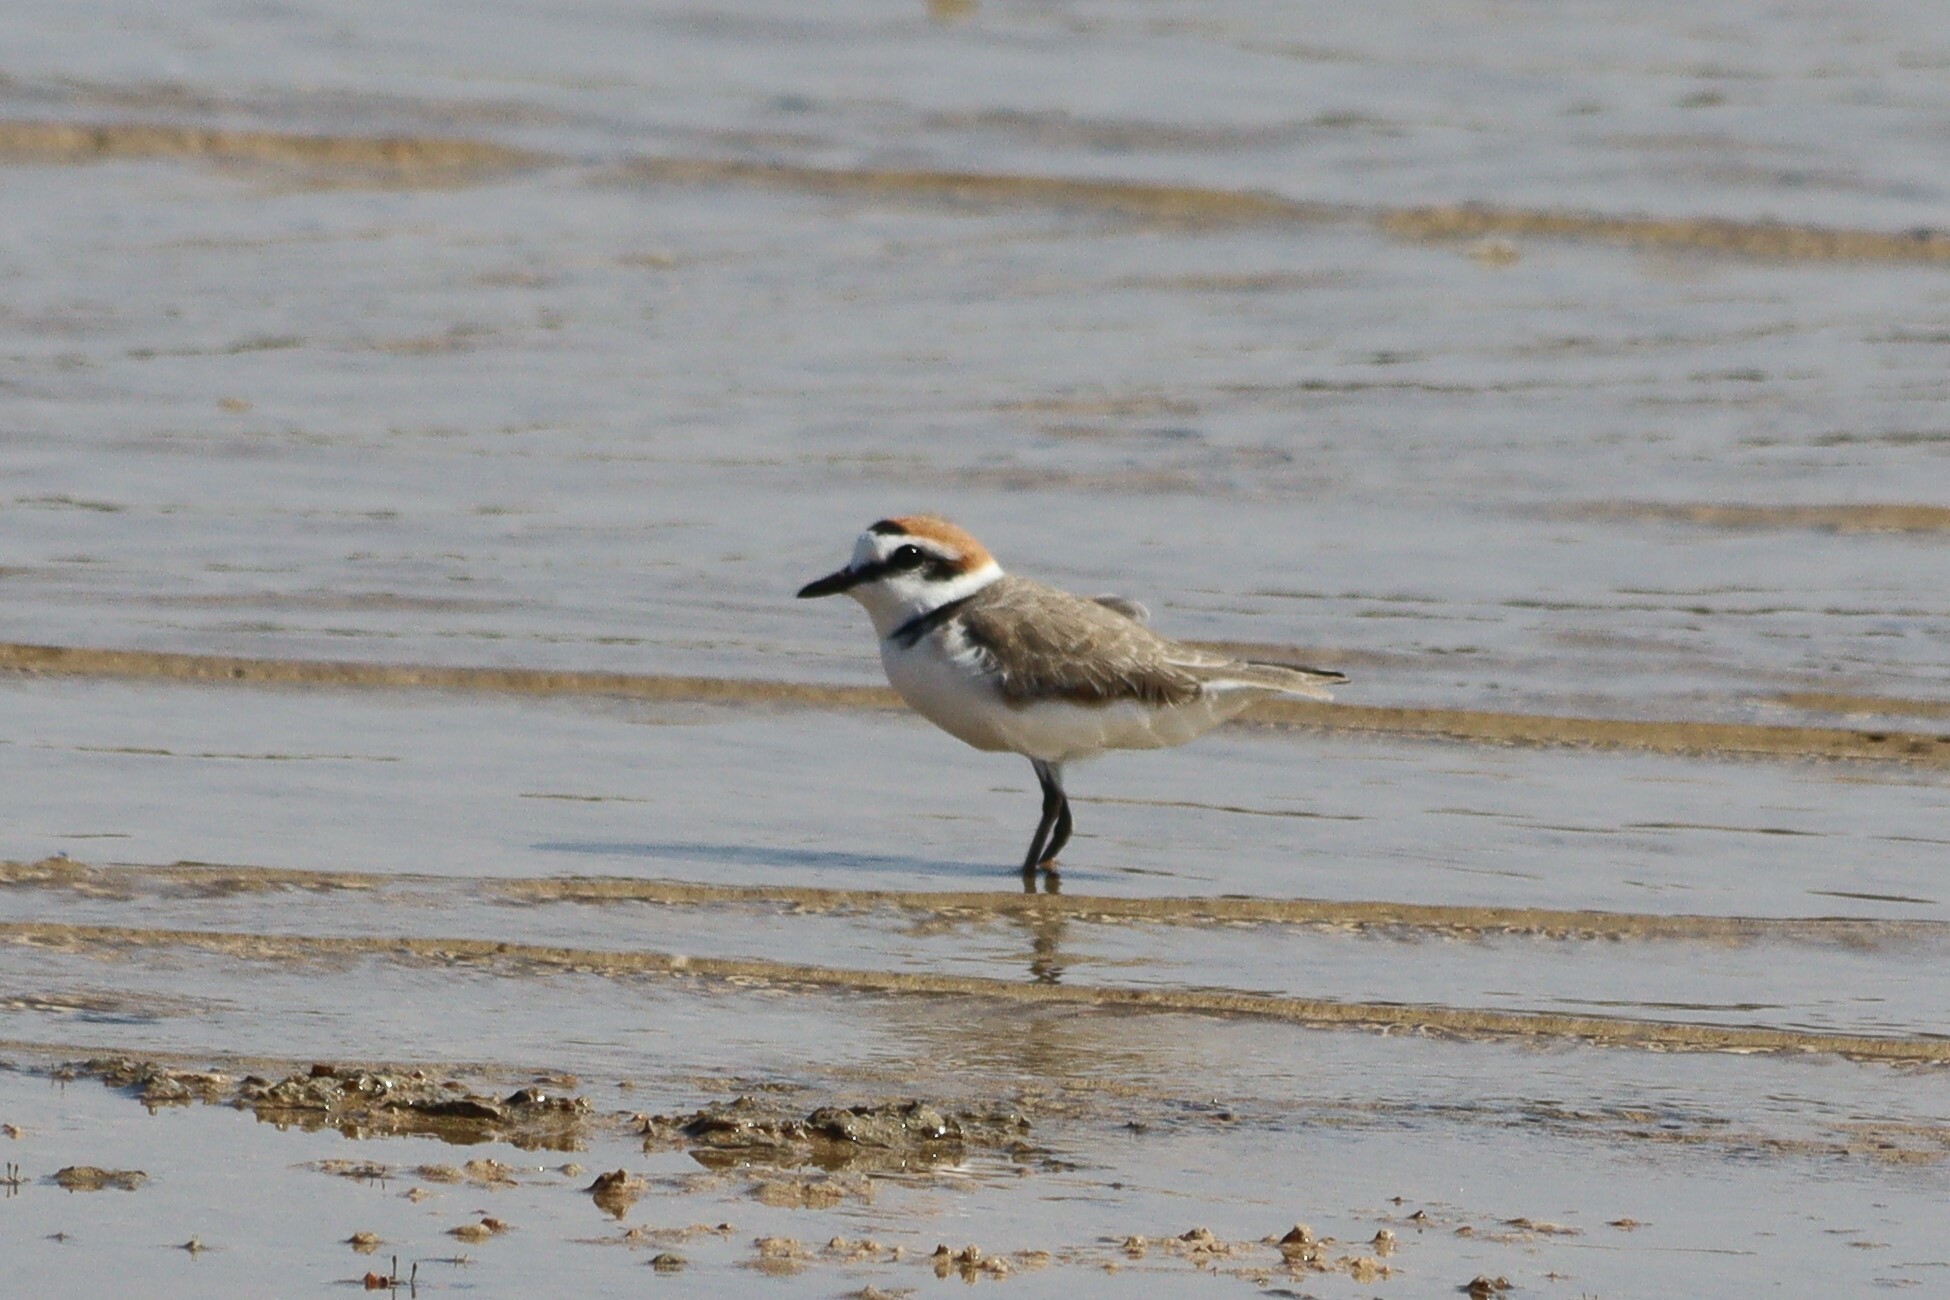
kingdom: Animalia
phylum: Chordata
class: Aves
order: Charadriiformes
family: Charadriidae
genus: Charadrius
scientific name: Charadrius alexandrinus
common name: Kentish plover
